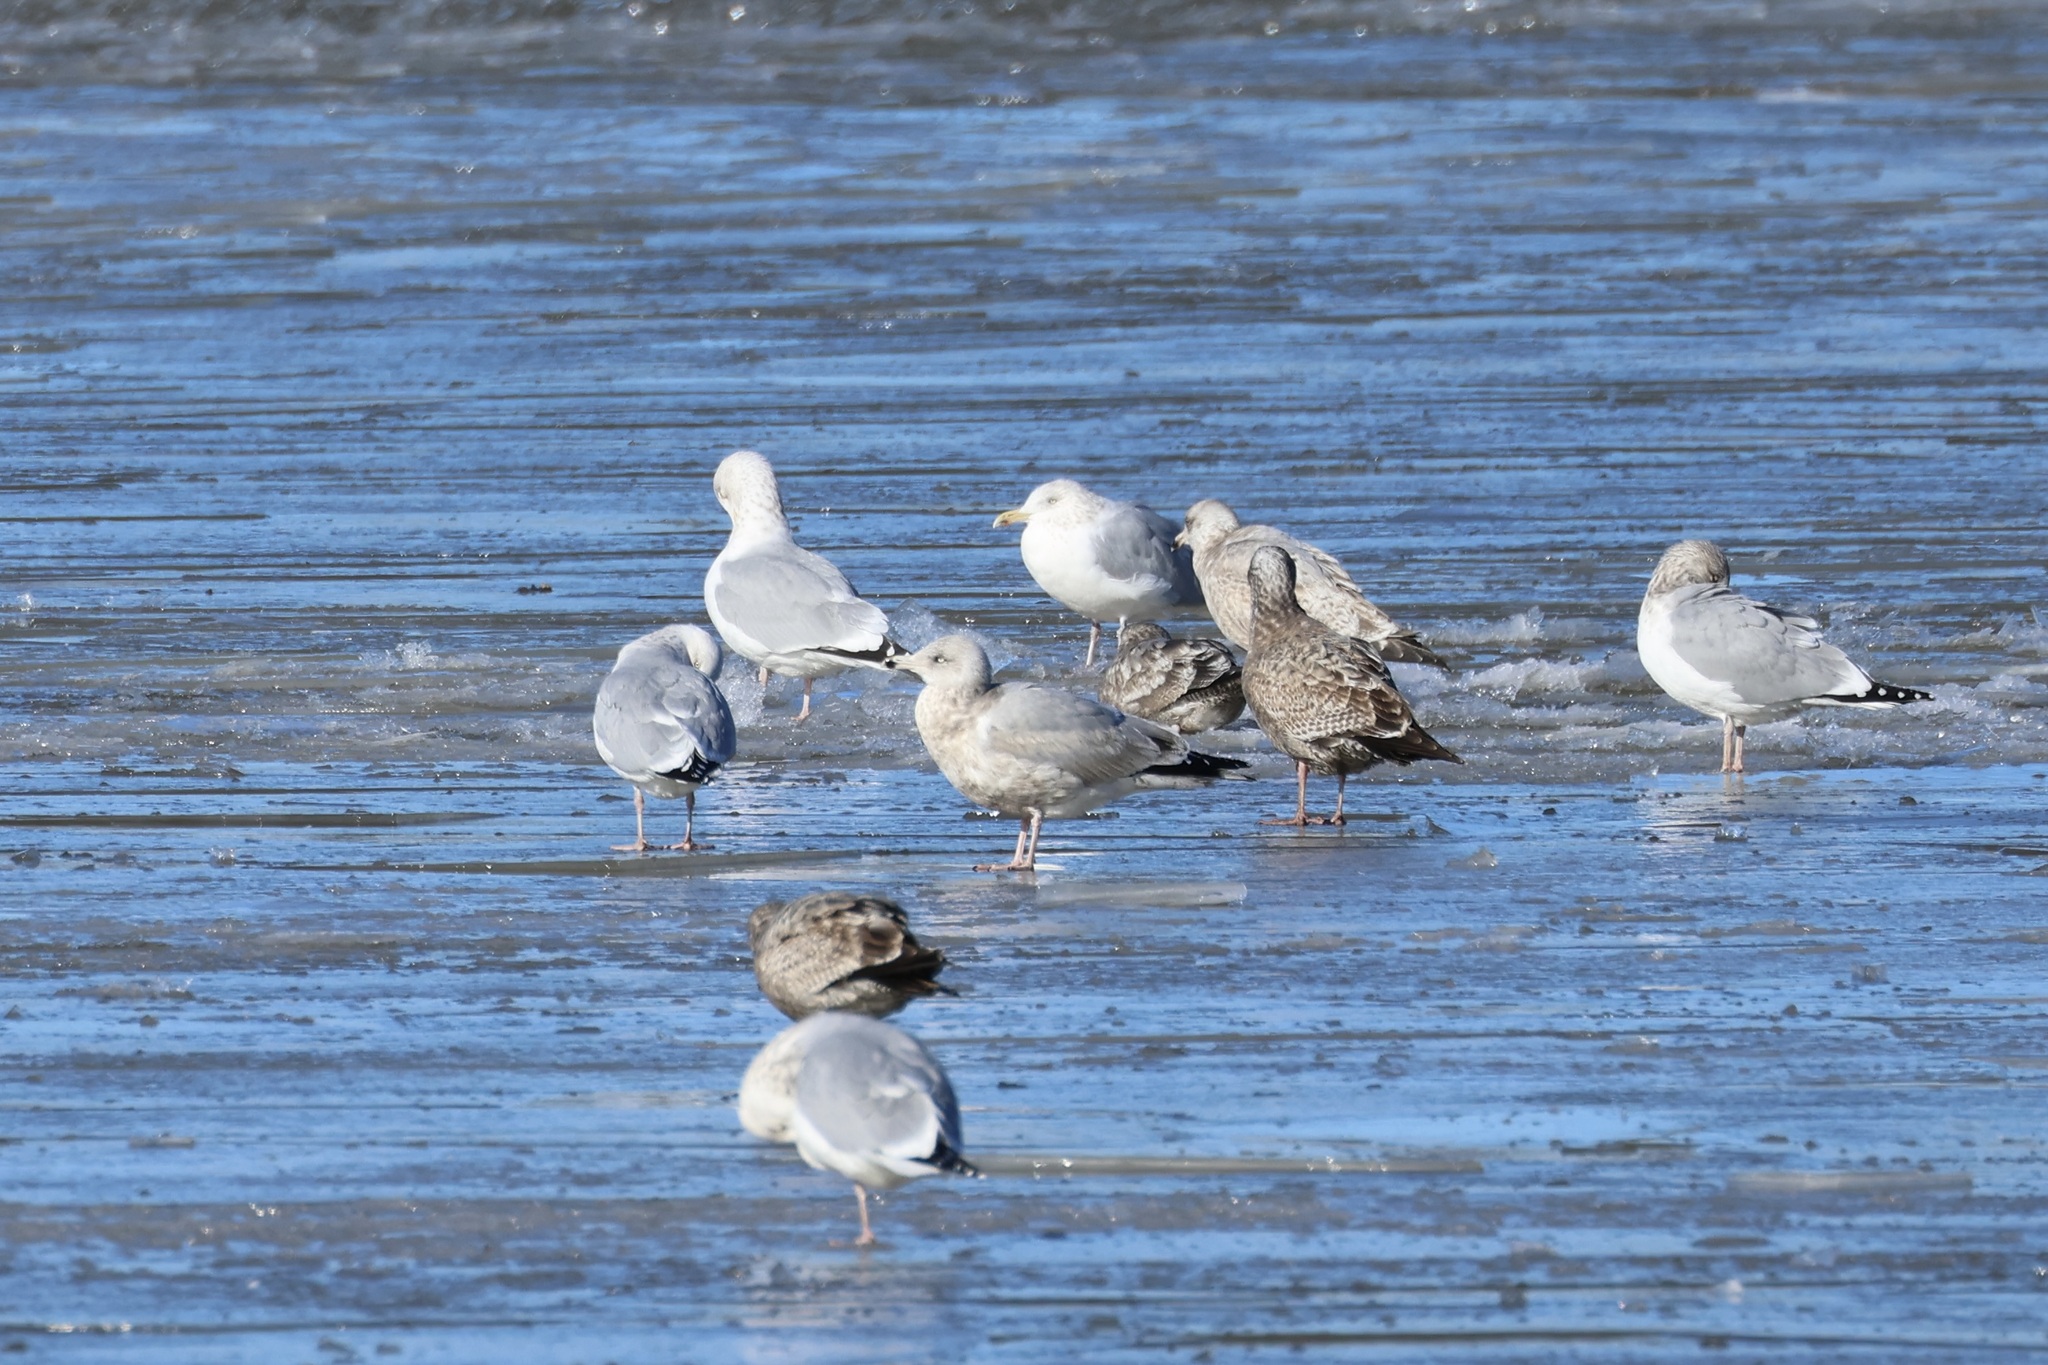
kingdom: Animalia
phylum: Chordata
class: Aves
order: Charadriiformes
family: Laridae
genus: Larus
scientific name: Larus argentatus
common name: Herring gull
